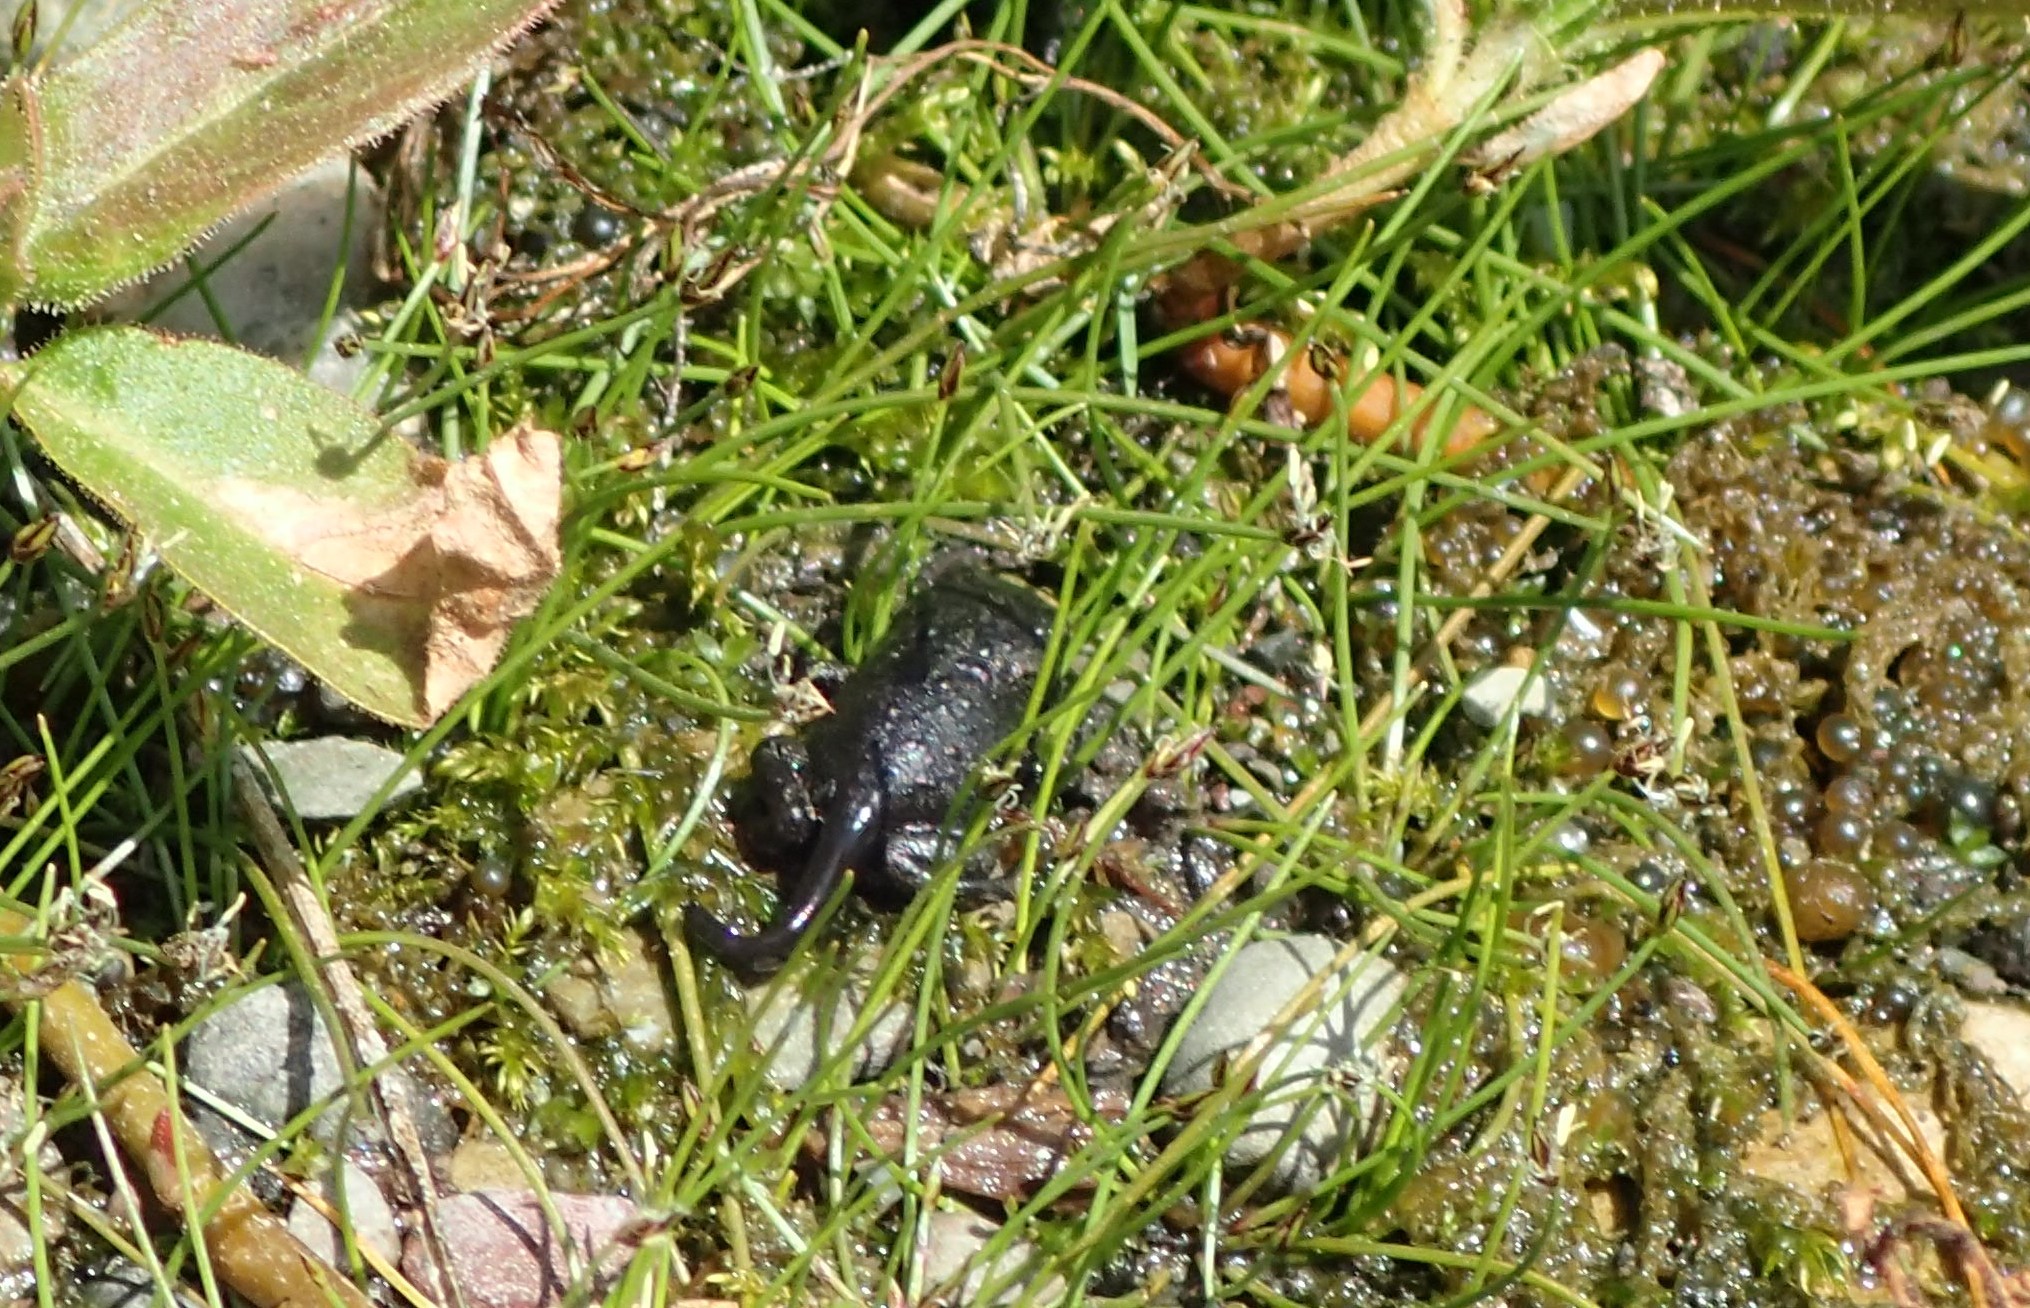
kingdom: Animalia
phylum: Chordata
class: Amphibia
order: Anura
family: Bufonidae
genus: Anaxyrus
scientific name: Anaxyrus boreas
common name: Western toad
